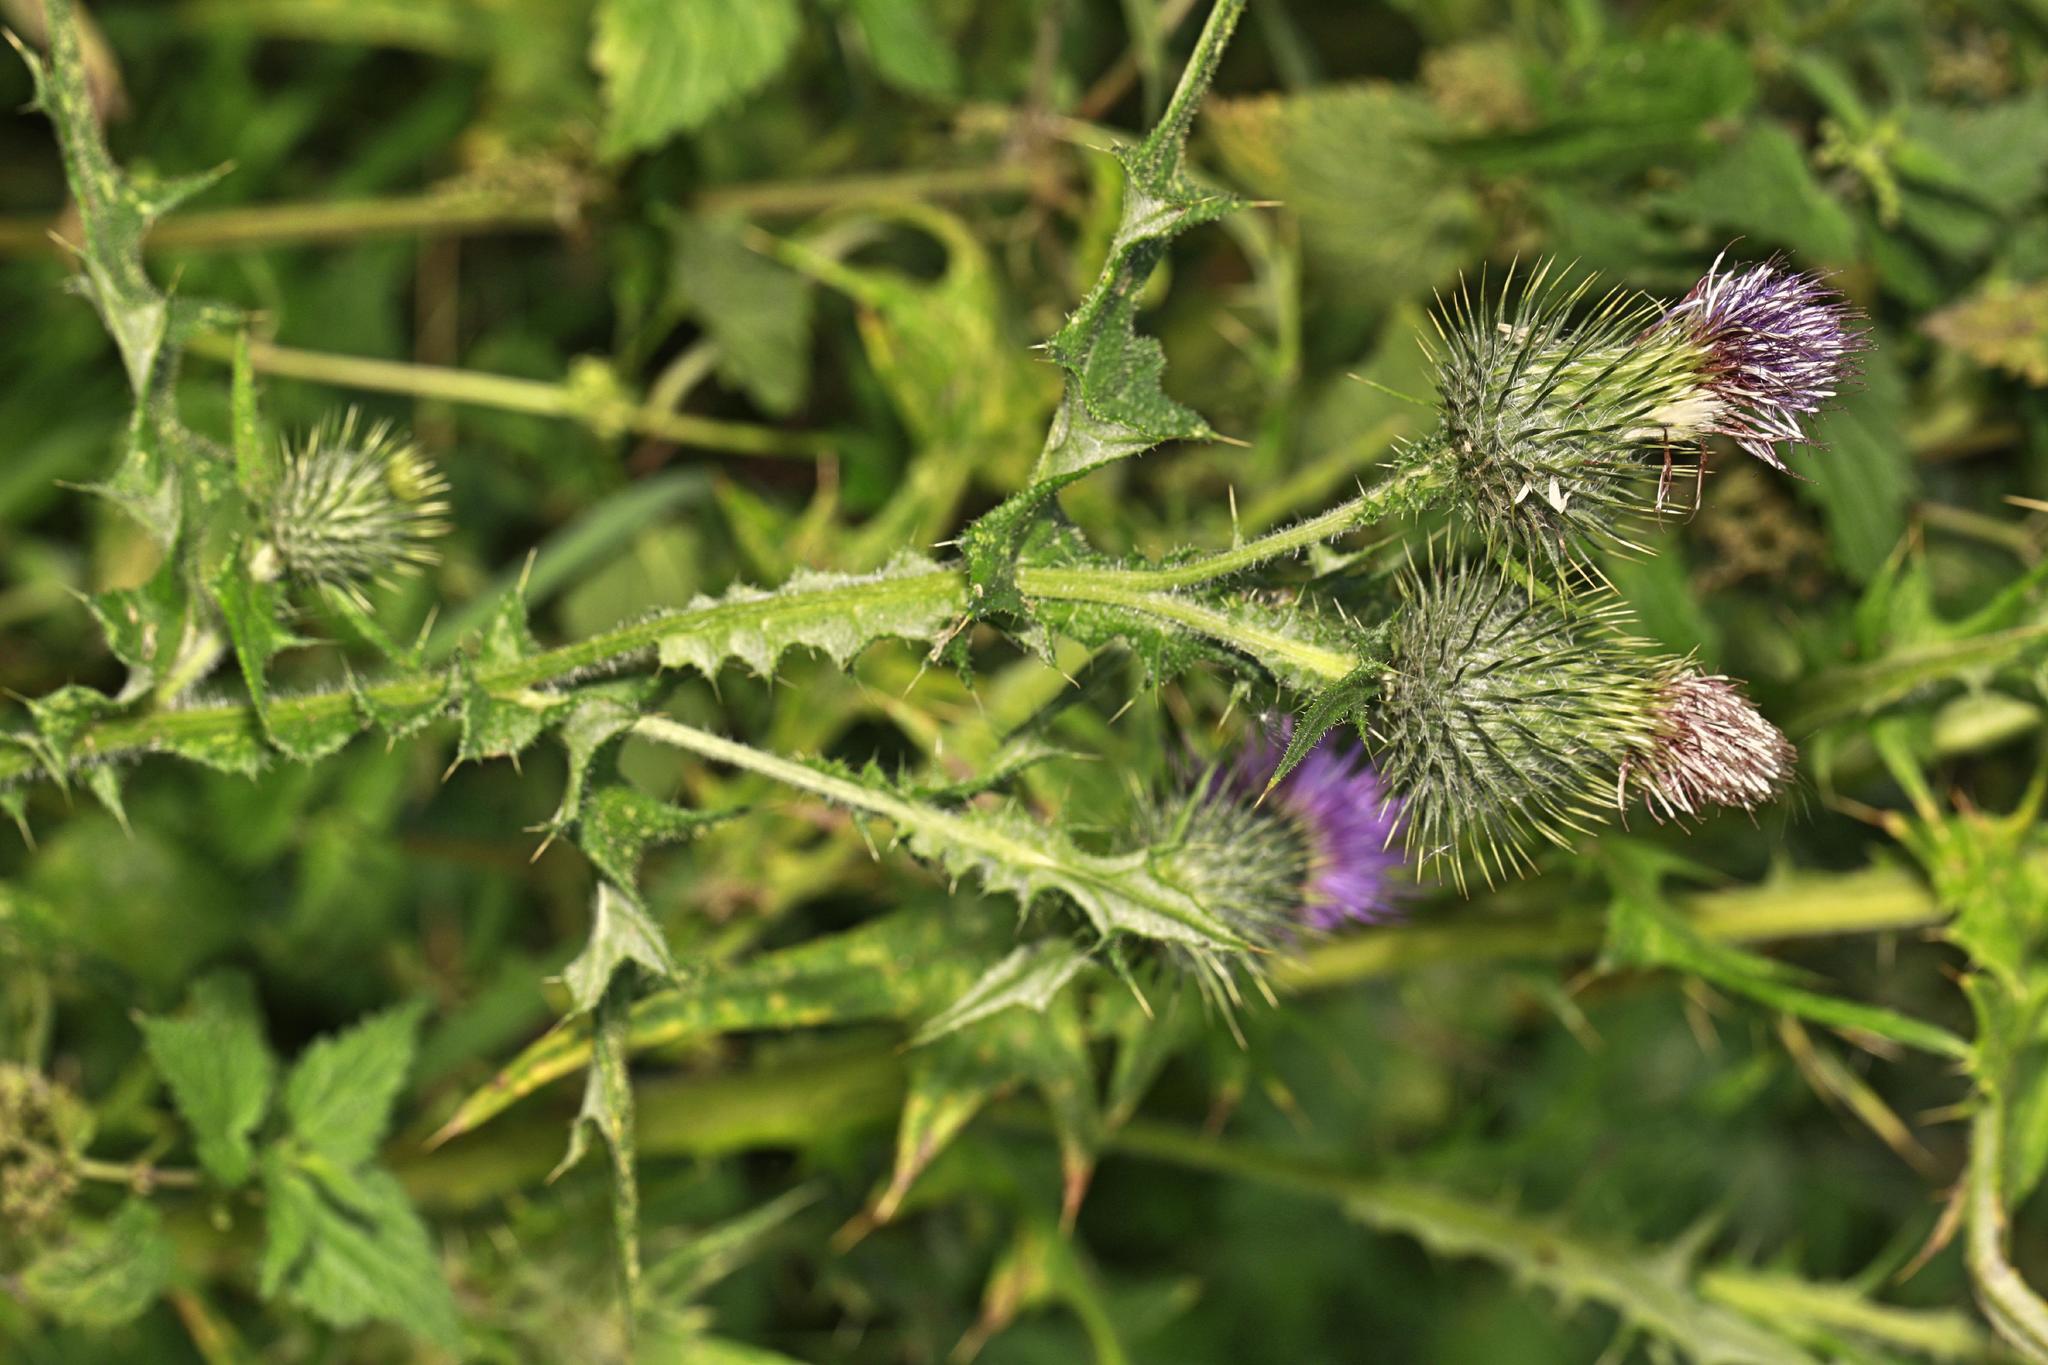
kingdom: Plantae
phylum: Tracheophyta
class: Magnoliopsida
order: Asterales
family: Asteraceae
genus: Cirsium
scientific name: Cirsium vulgare
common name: Bull thistle
